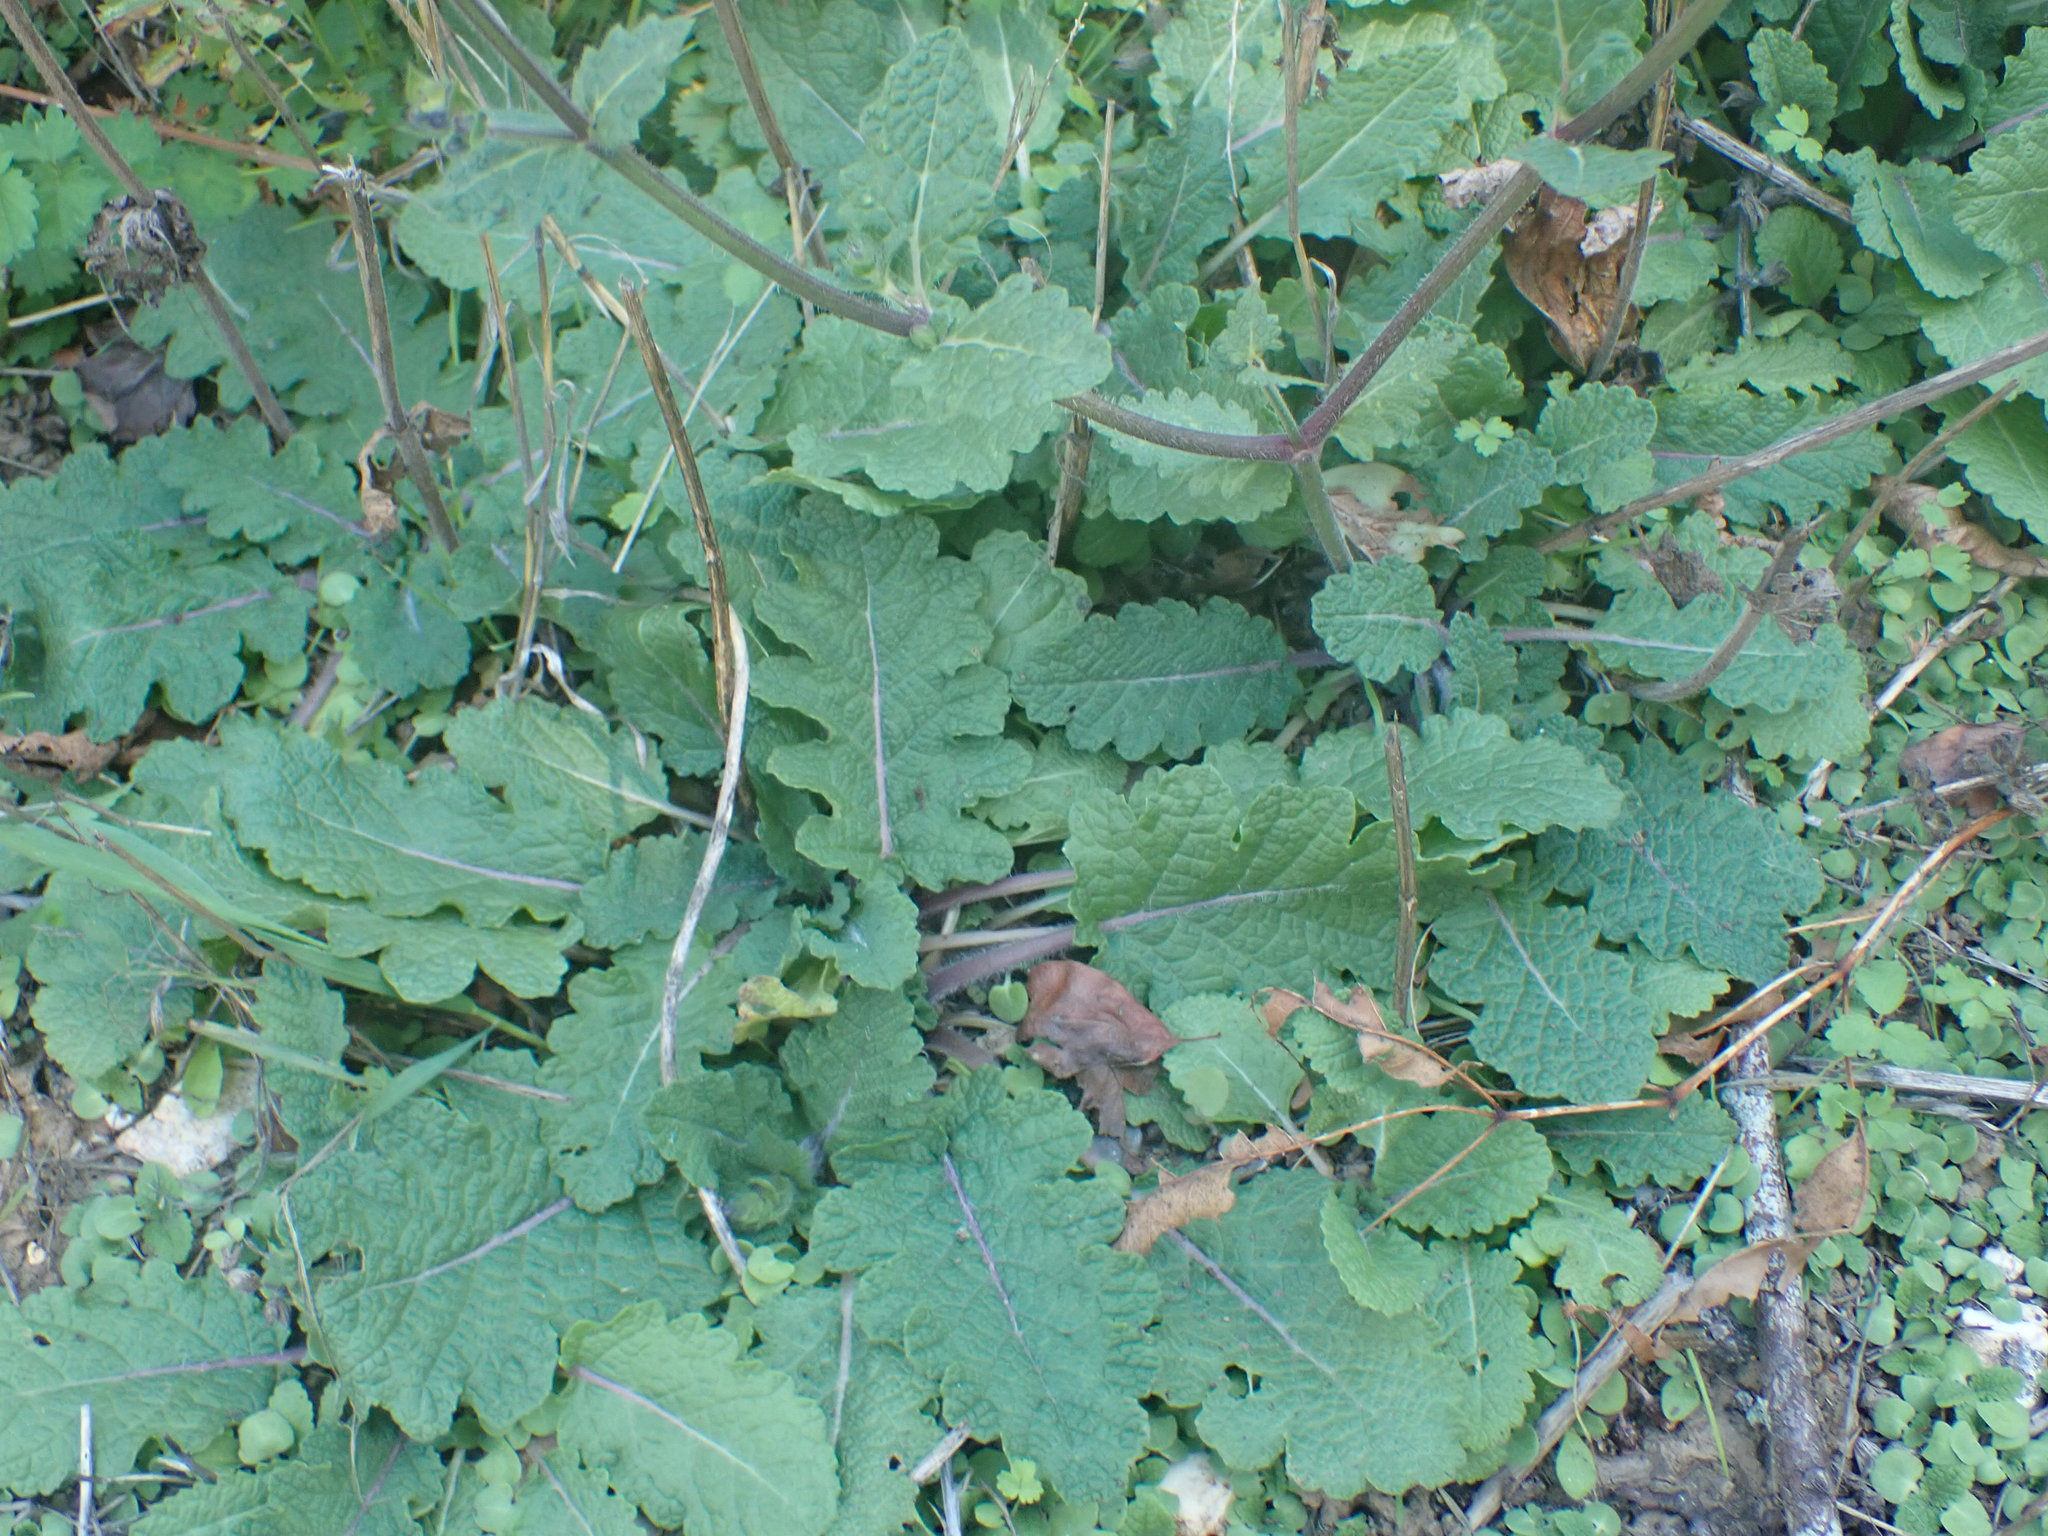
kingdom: Plantae
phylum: Tracheophyta
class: Magnoliopsida
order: Lamiales
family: Lamiaceae
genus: Salvia
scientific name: Salvia verbenaca
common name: Wild clary
